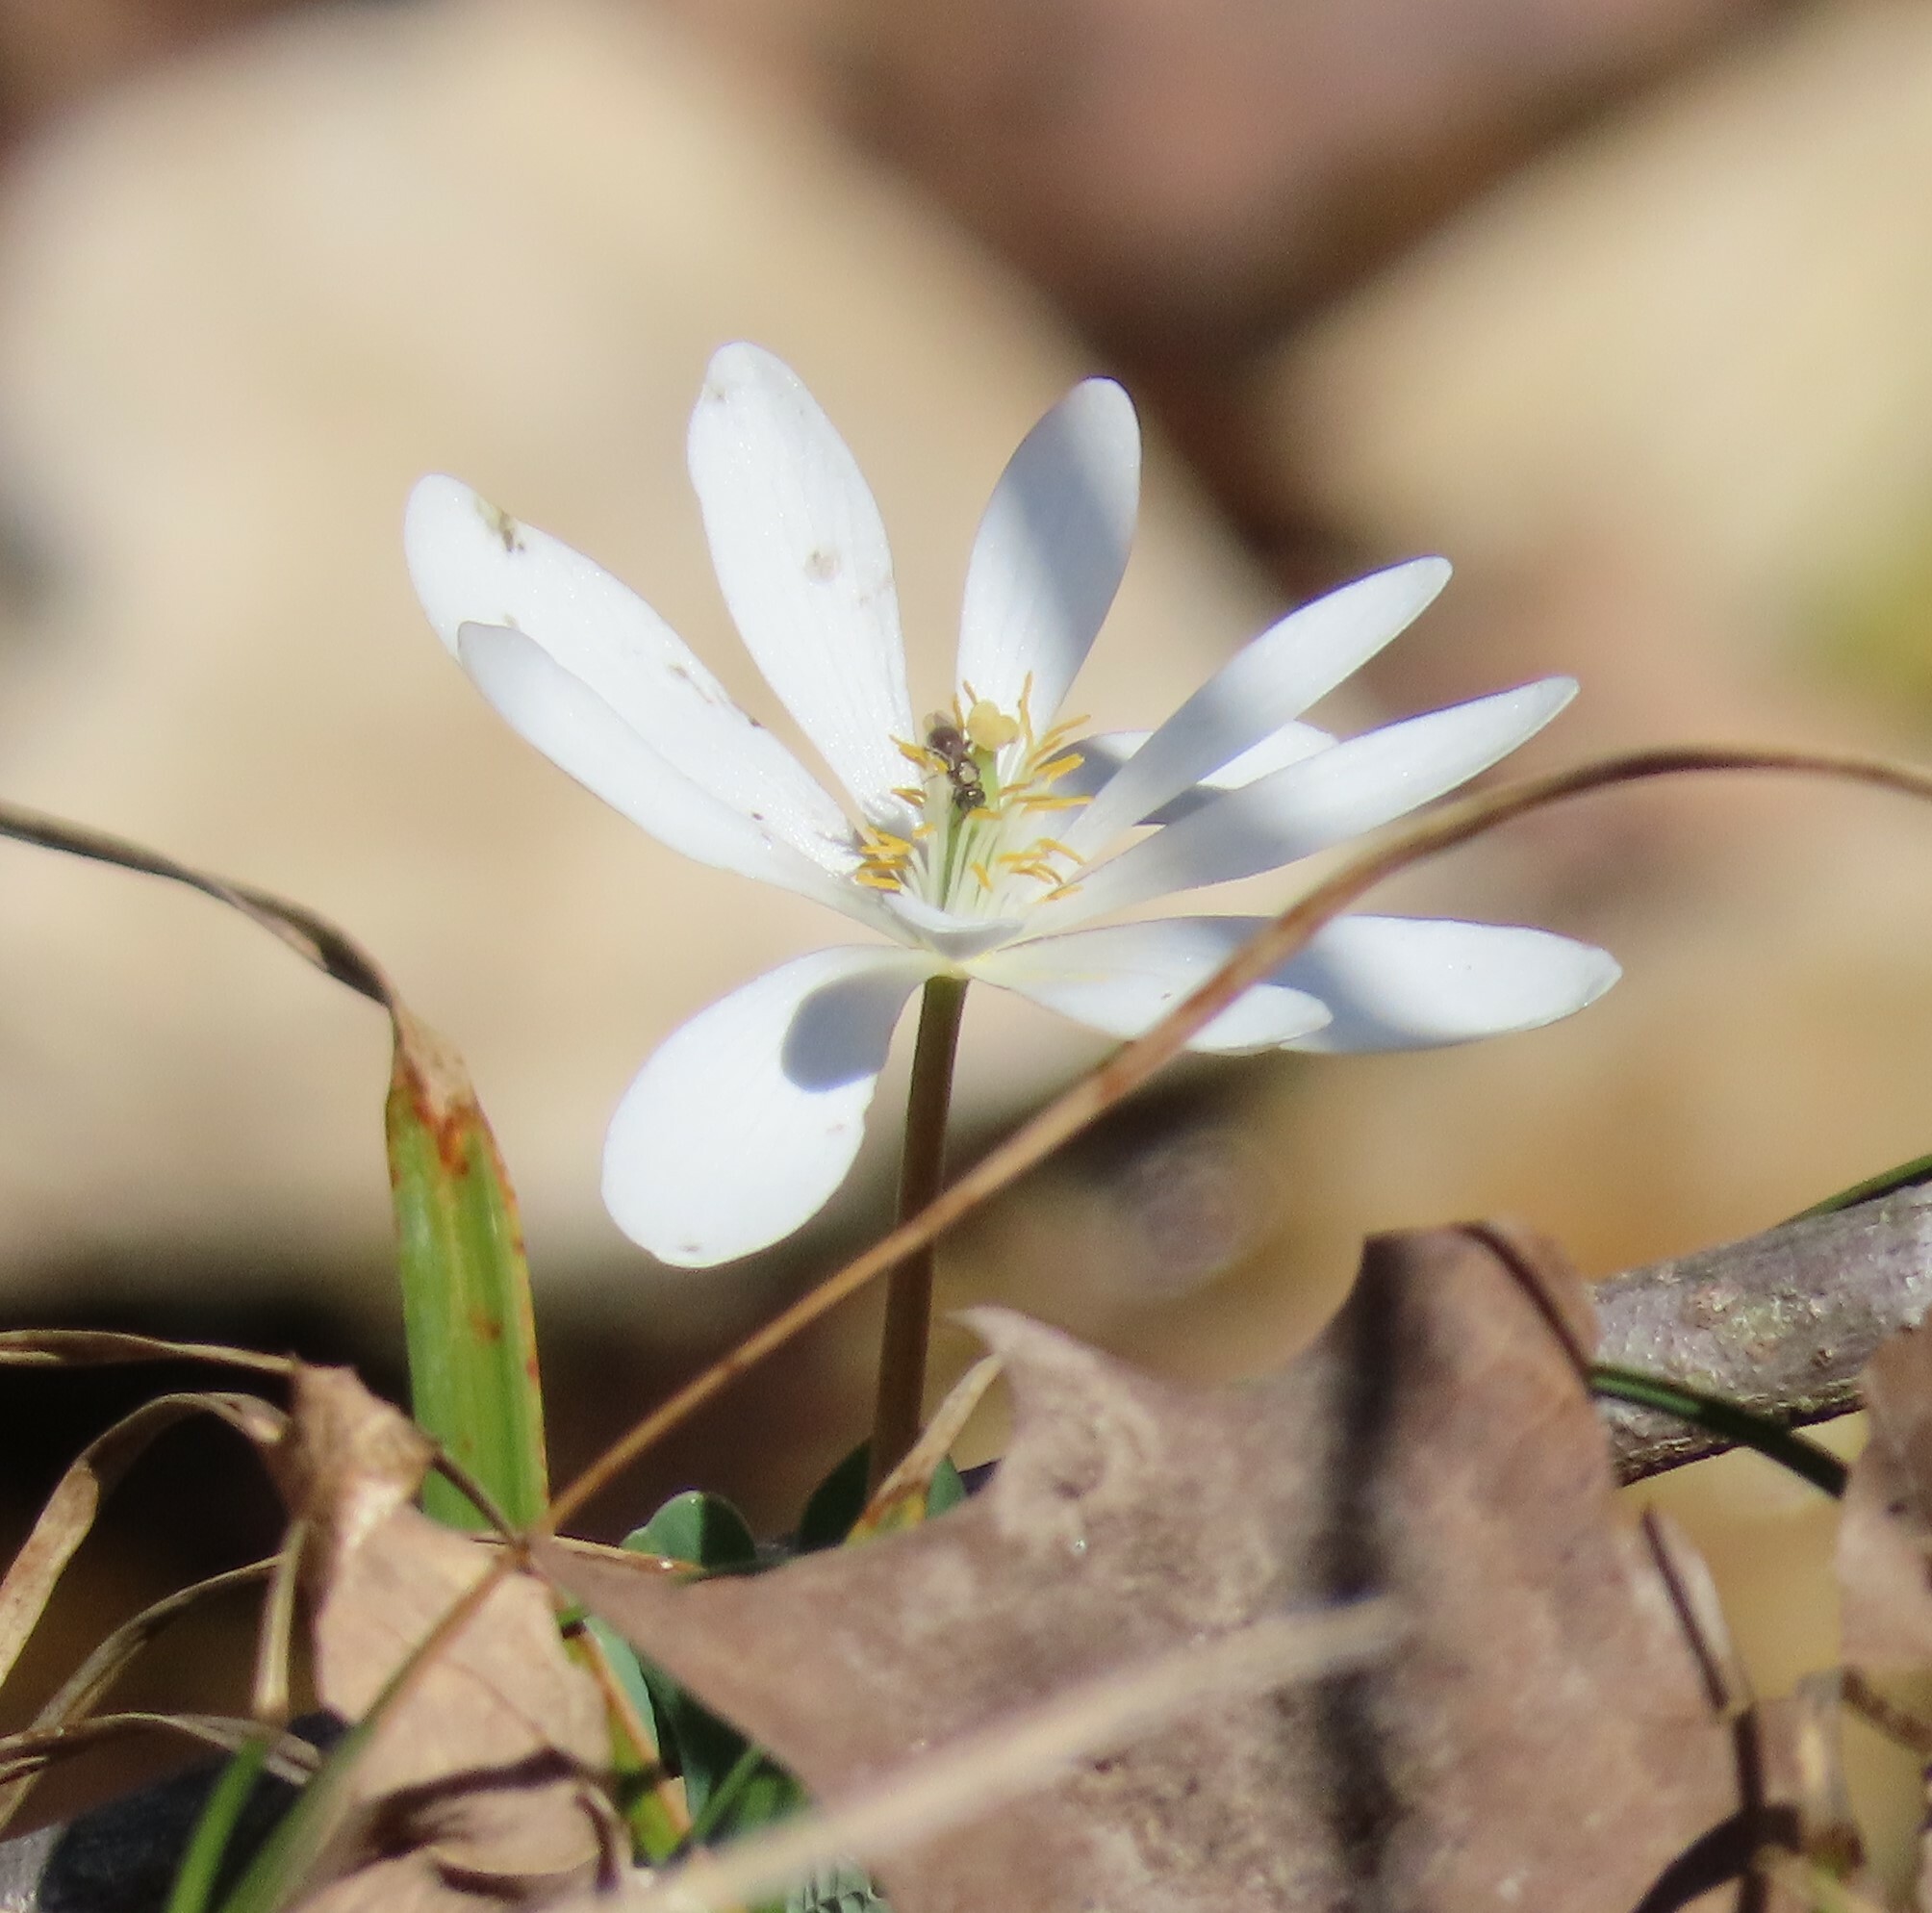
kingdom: Plantae
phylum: Tracheophyta
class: Magnoliopsida
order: Ranunculales
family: Papaveraceae
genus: Sanguinaria
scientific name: Sanguinaria canadensis
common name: Bloodroot
